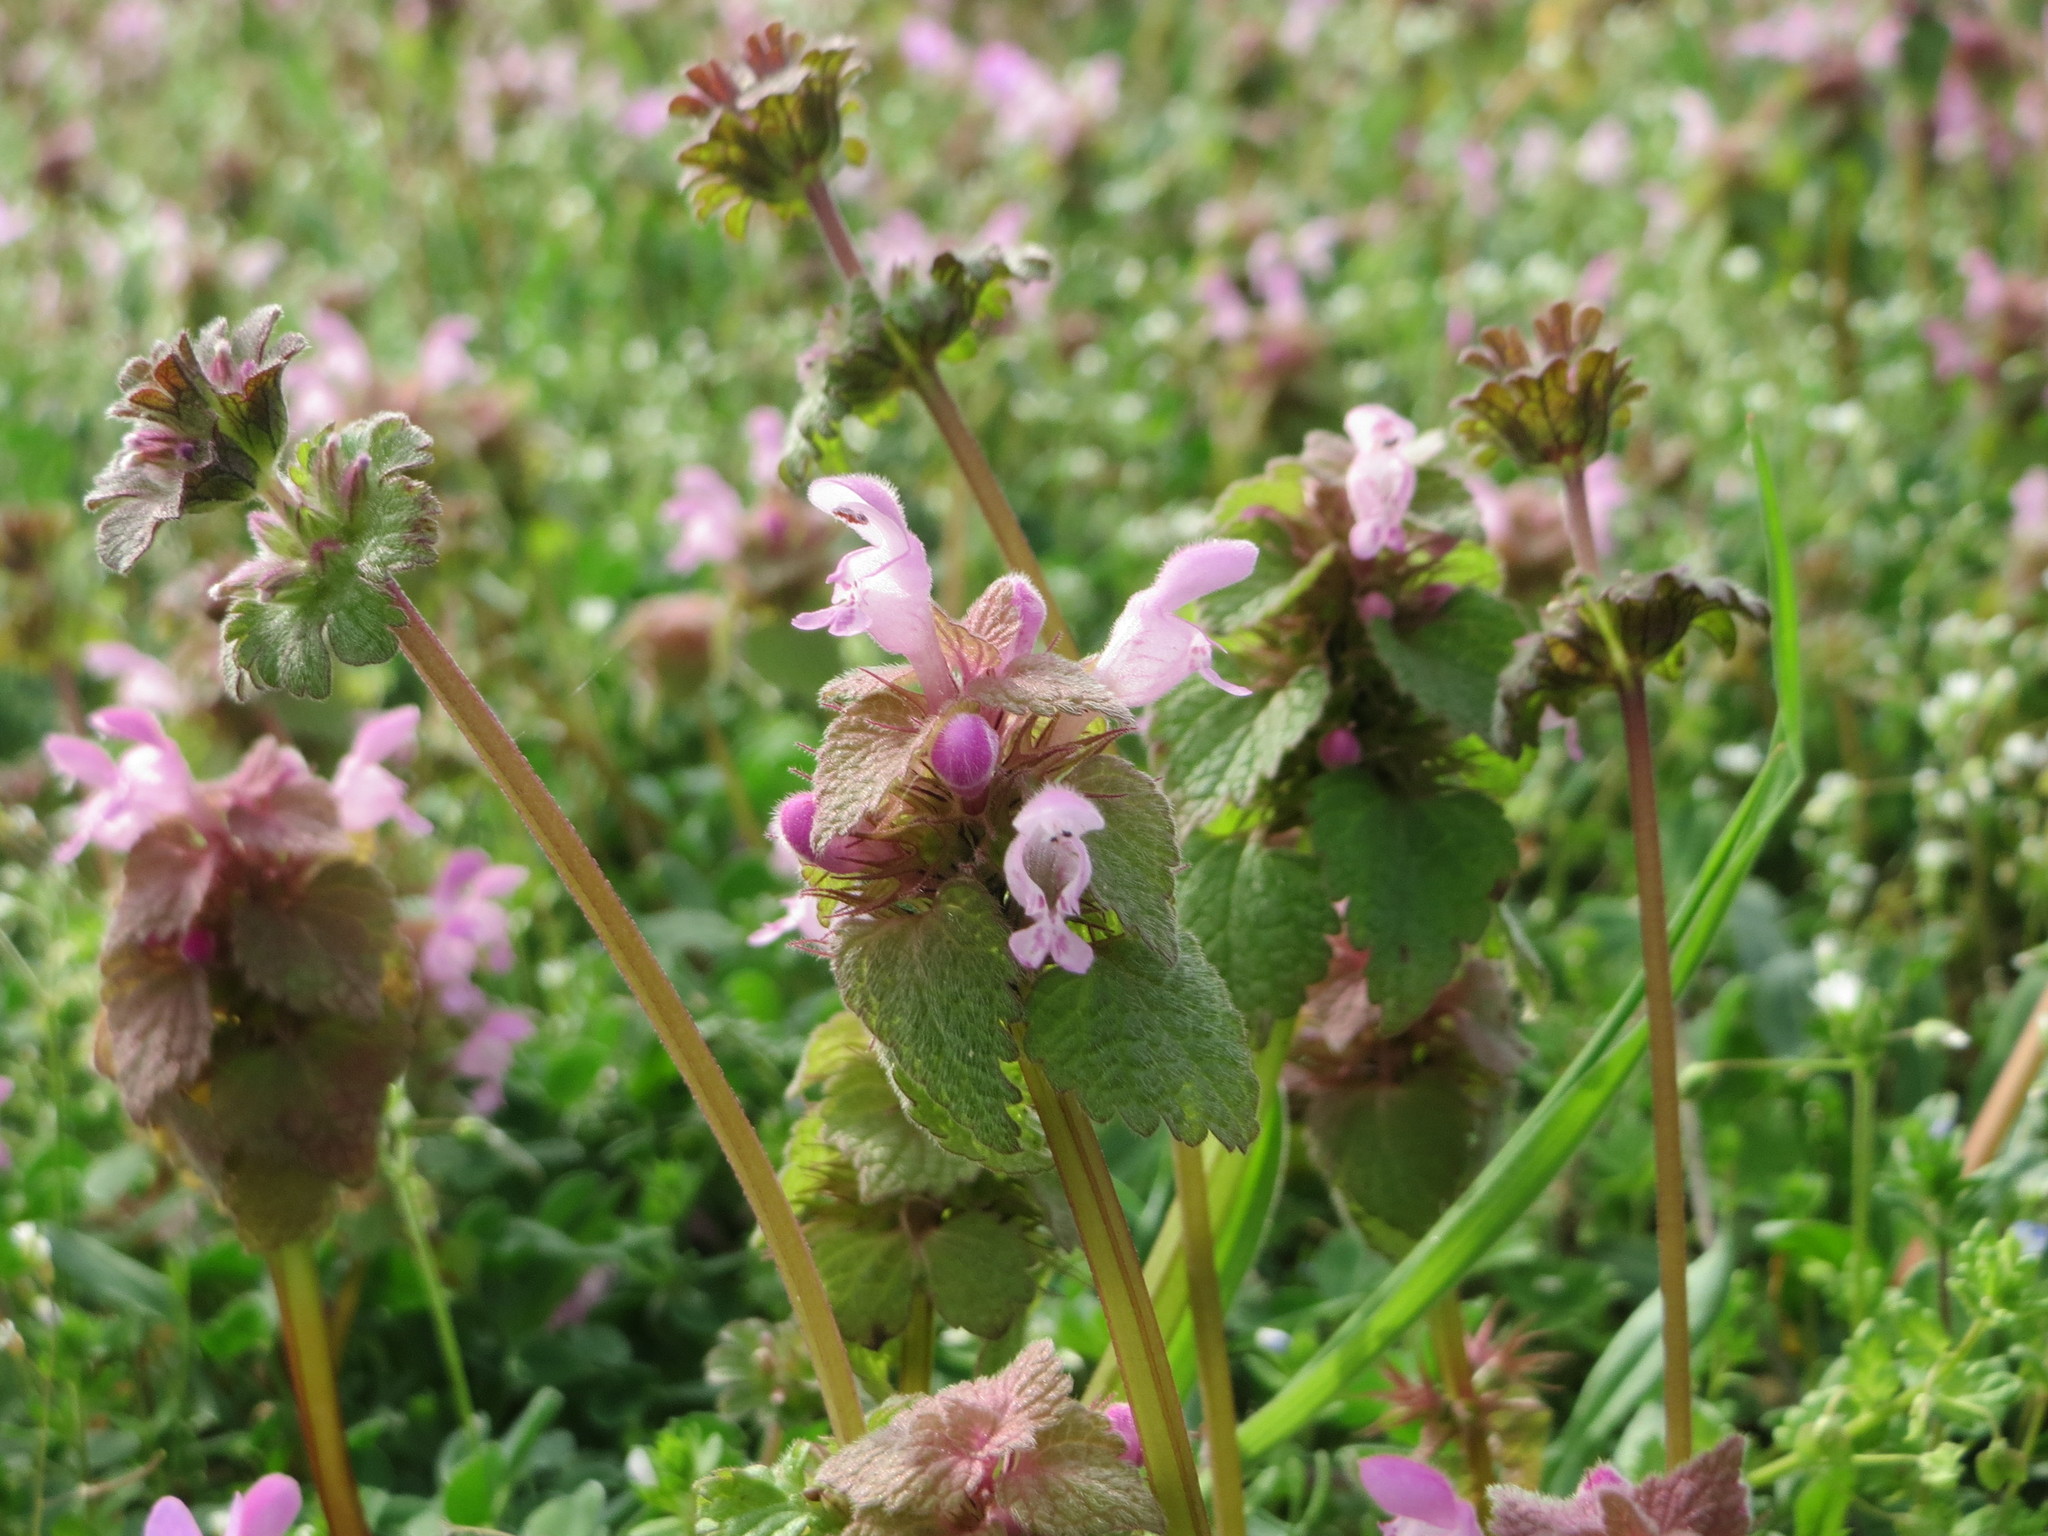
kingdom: Plantae
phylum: Tracheophyta
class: Magnoliopsida
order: Lamiales
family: Lamiaceae
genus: Lamium
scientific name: Lamium purpureum
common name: Red dead-nettle
